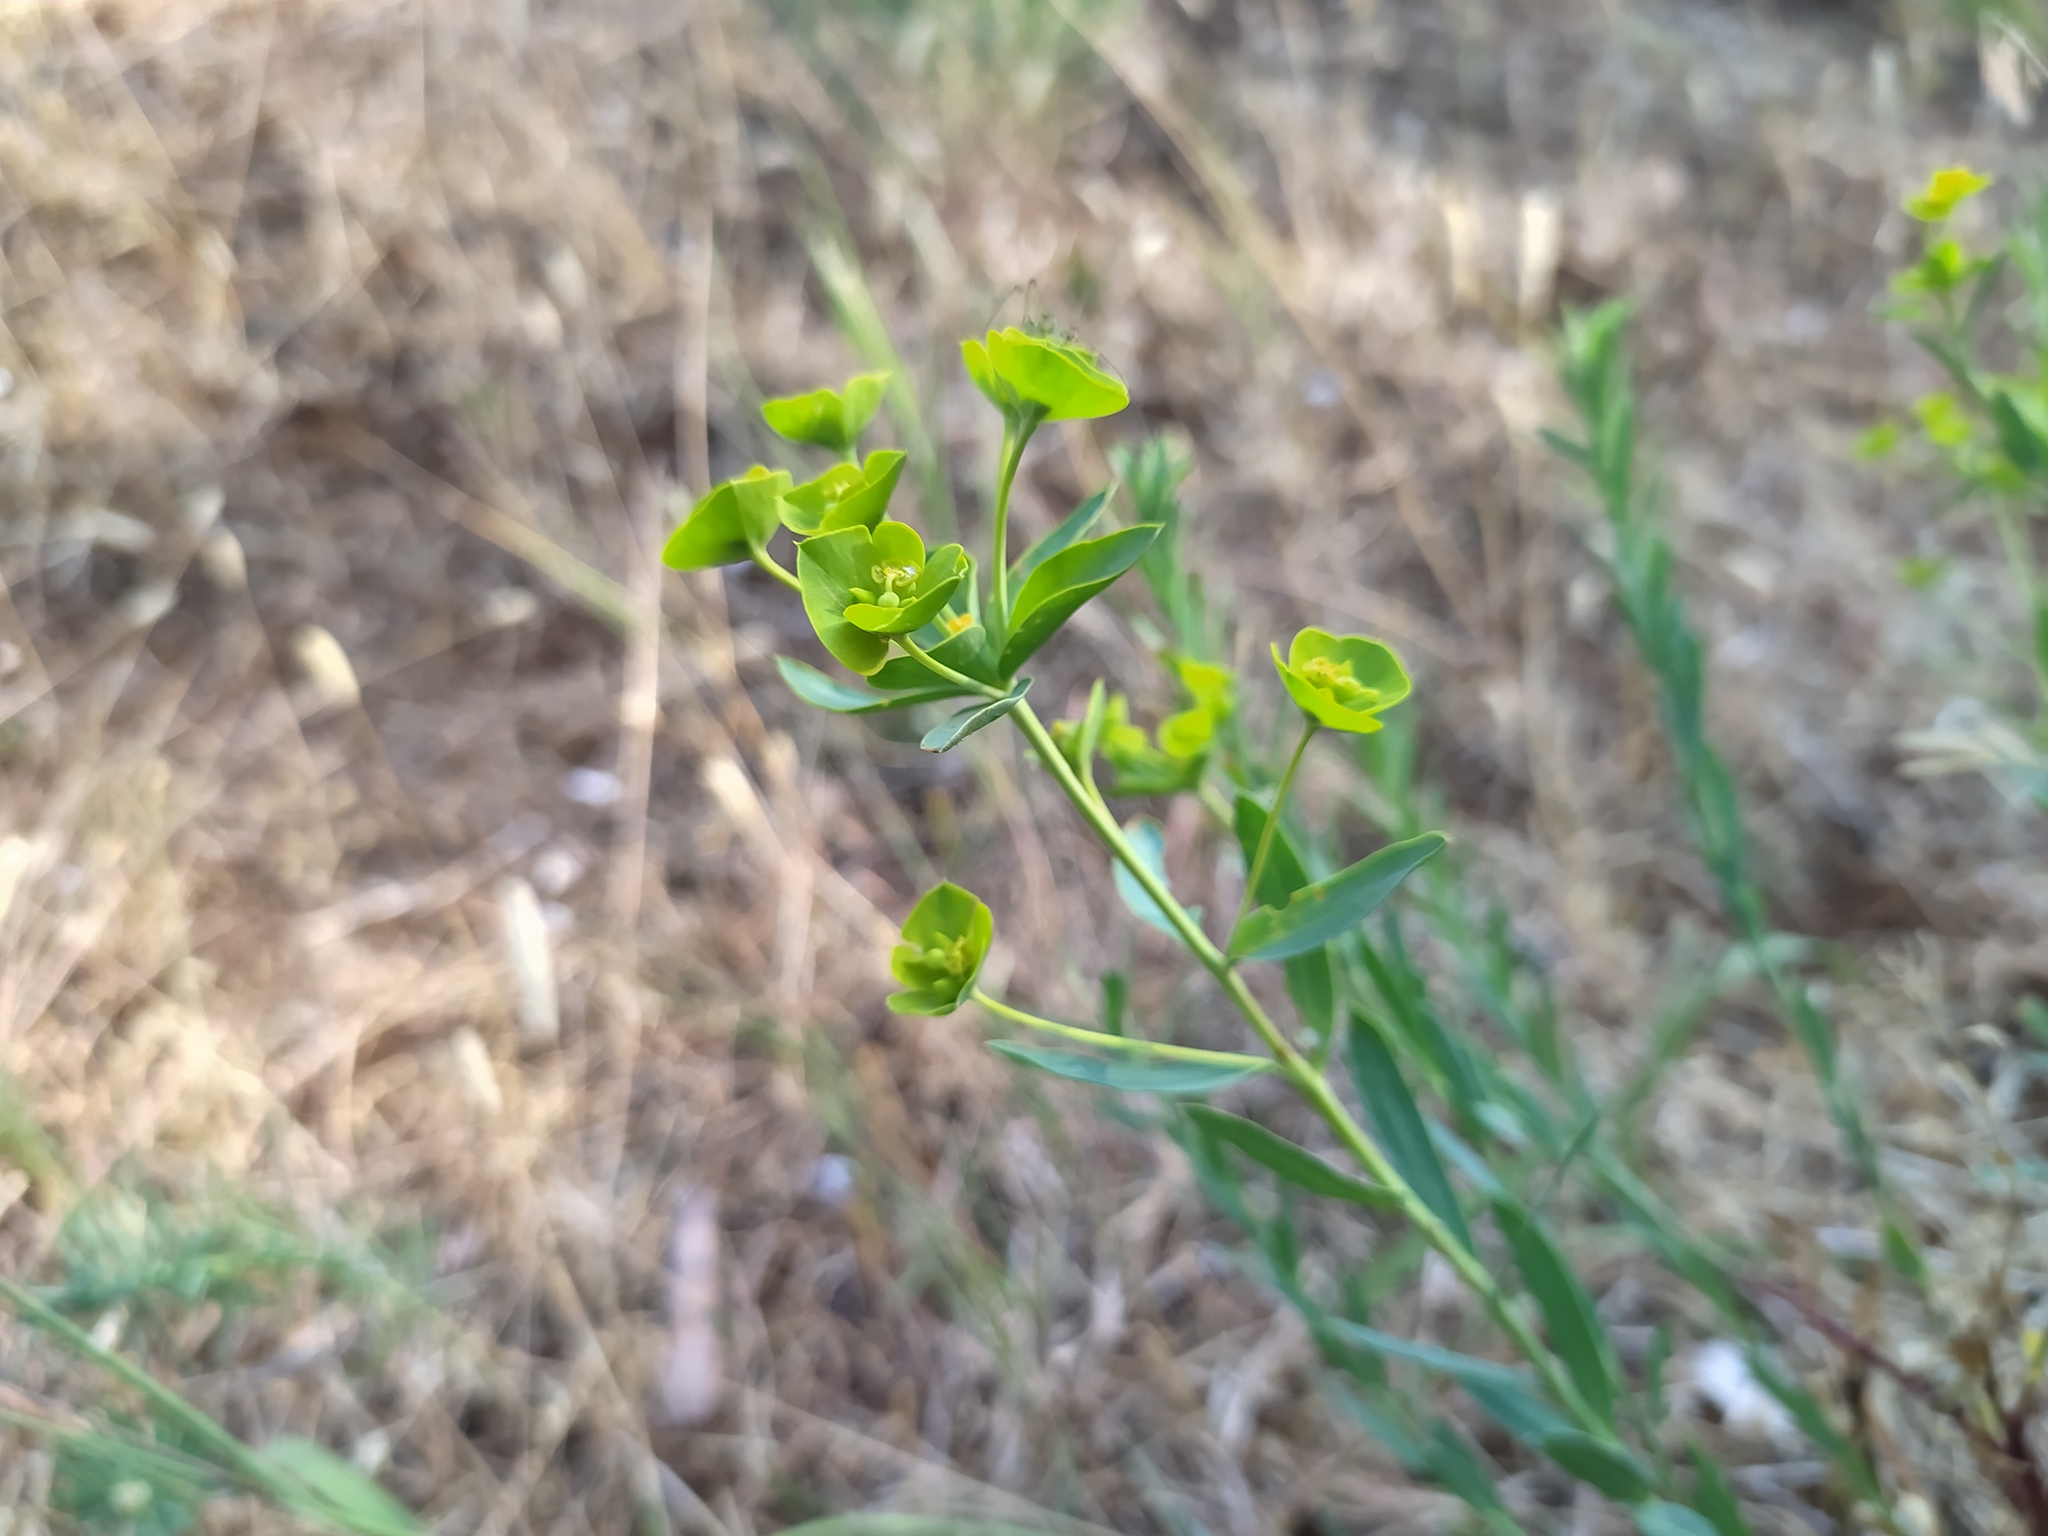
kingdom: Plantae
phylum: Tracheophyta
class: Magnoliopsida
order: Malpighiales
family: Euphorbiaceae
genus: Euphorbia
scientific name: Euphorbia seguieriana
